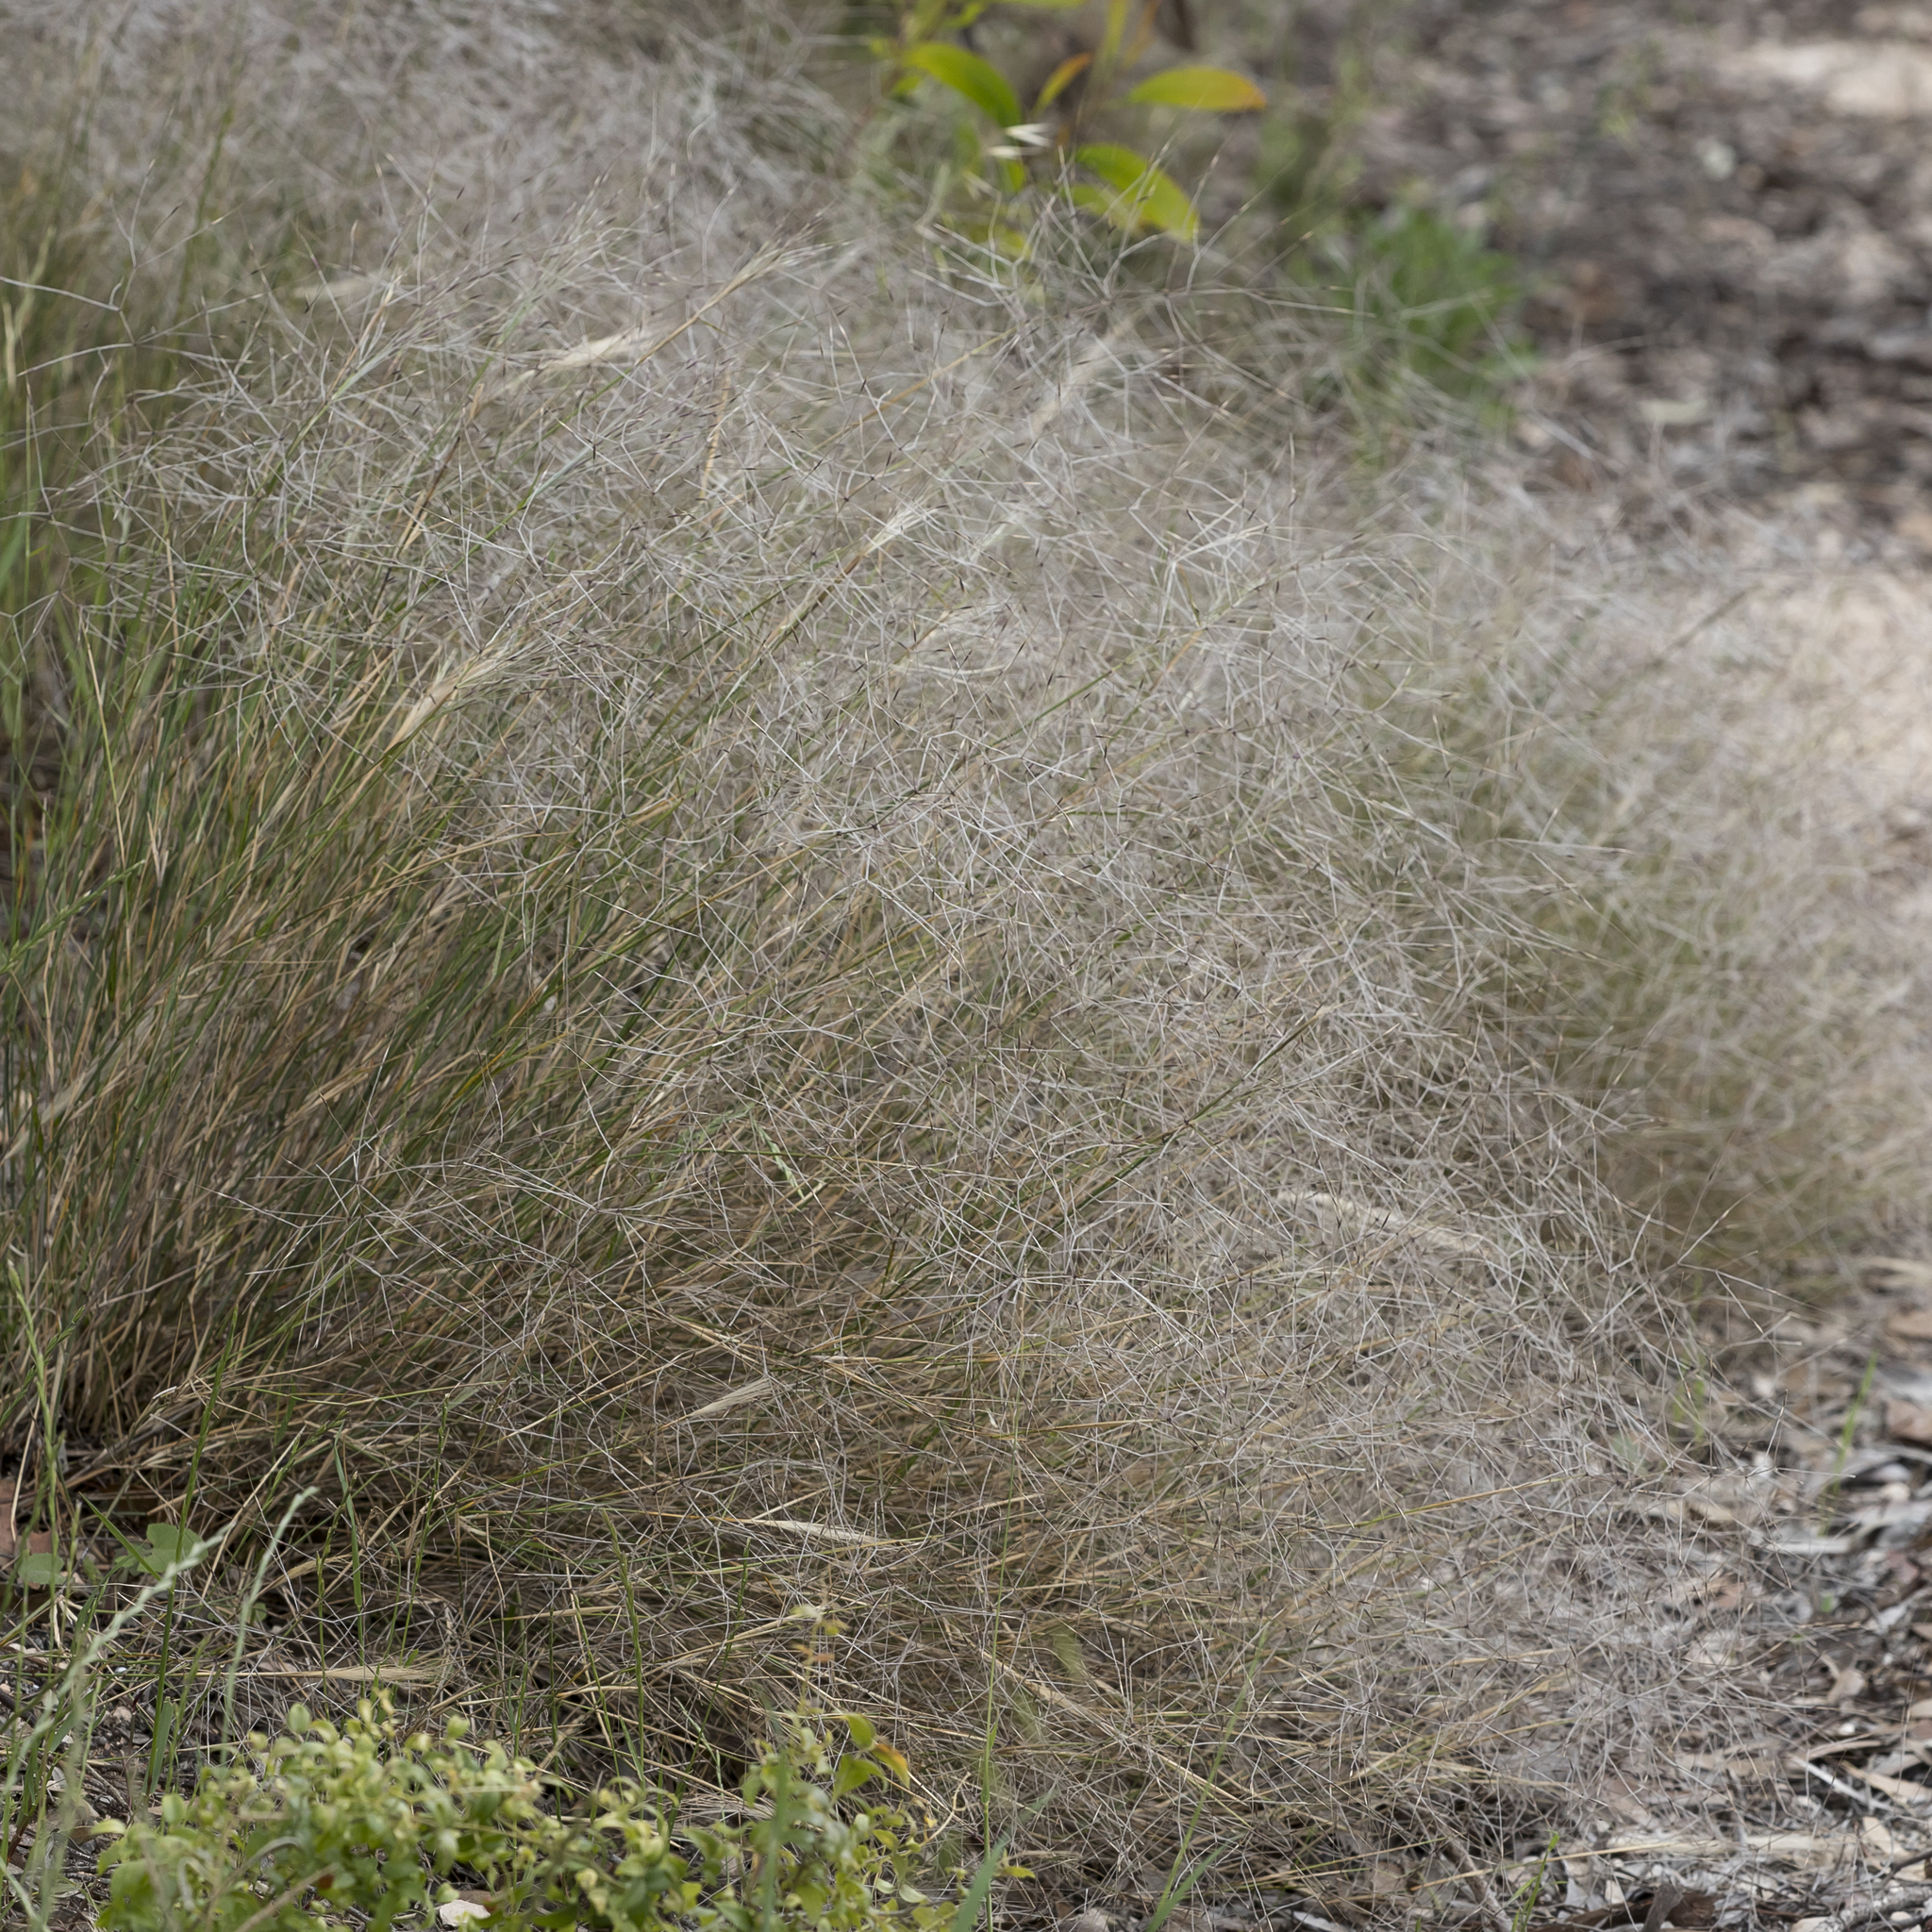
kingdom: Plantae
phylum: Tracheophyta
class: Liliopsida
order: Poales
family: Poaceae
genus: Austrostipa
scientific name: Austrostipa elegantissima
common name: Feather spear grass
